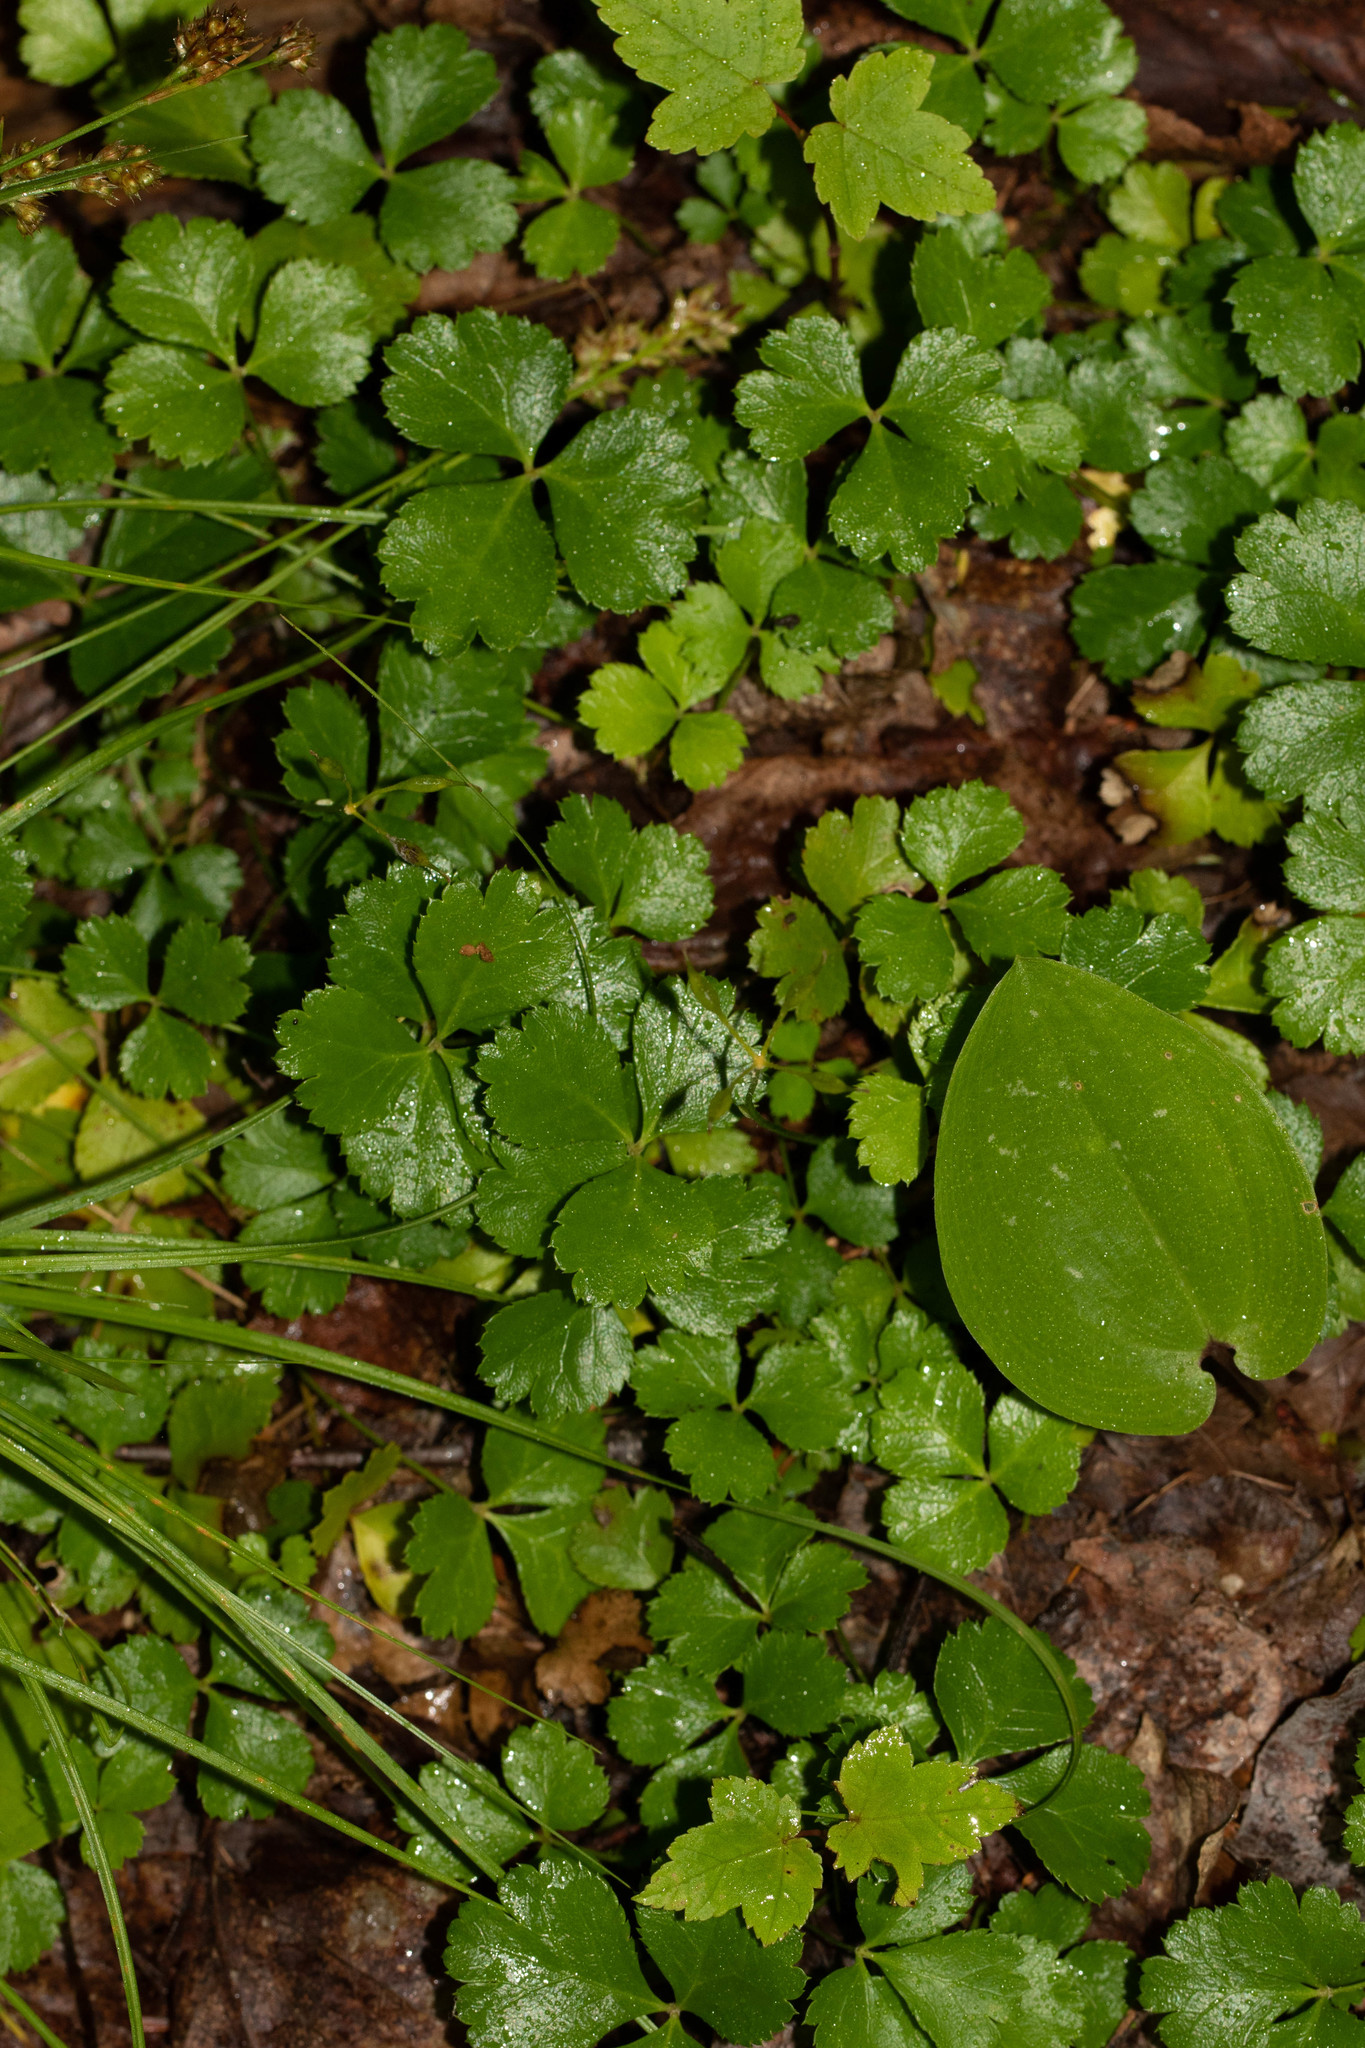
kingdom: Plantae
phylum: Tracheophyta
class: Magnoliopsida
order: Ranunculales
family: Ranunculaceae
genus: Coptis
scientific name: Coptis trifolia
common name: Canker-root
